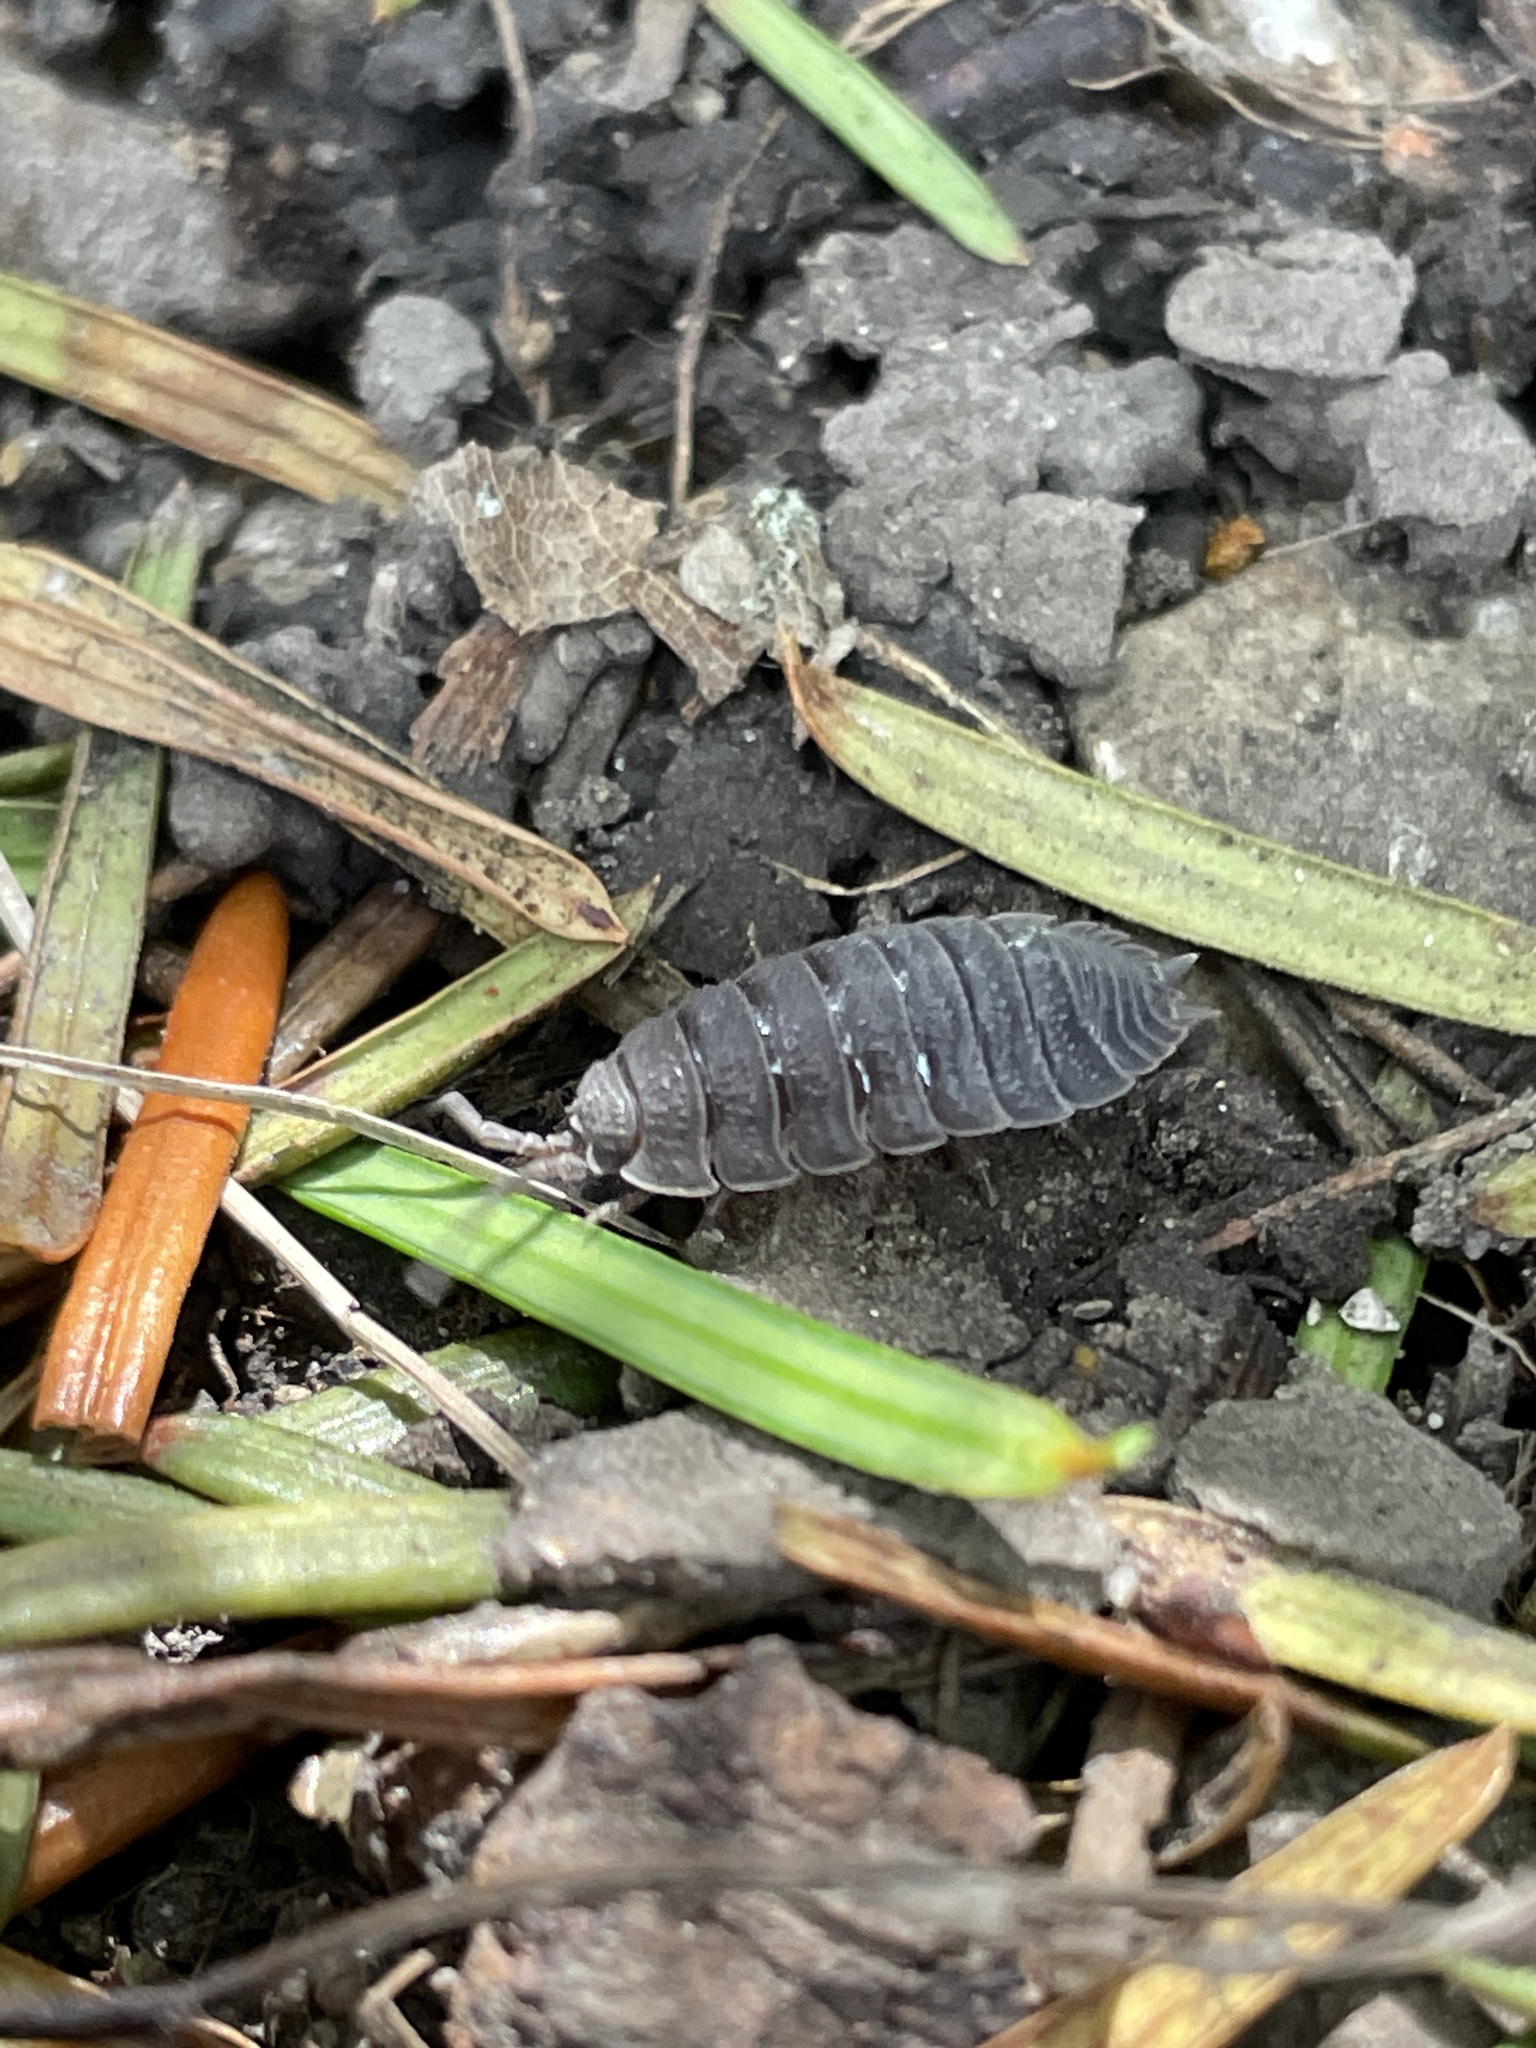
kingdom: Animalia
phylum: Arthropoda
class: Malacostraca
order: Isopoda
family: Porcellionidae
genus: Porcellio
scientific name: Porcellio scaber
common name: Common rough woodlouse
